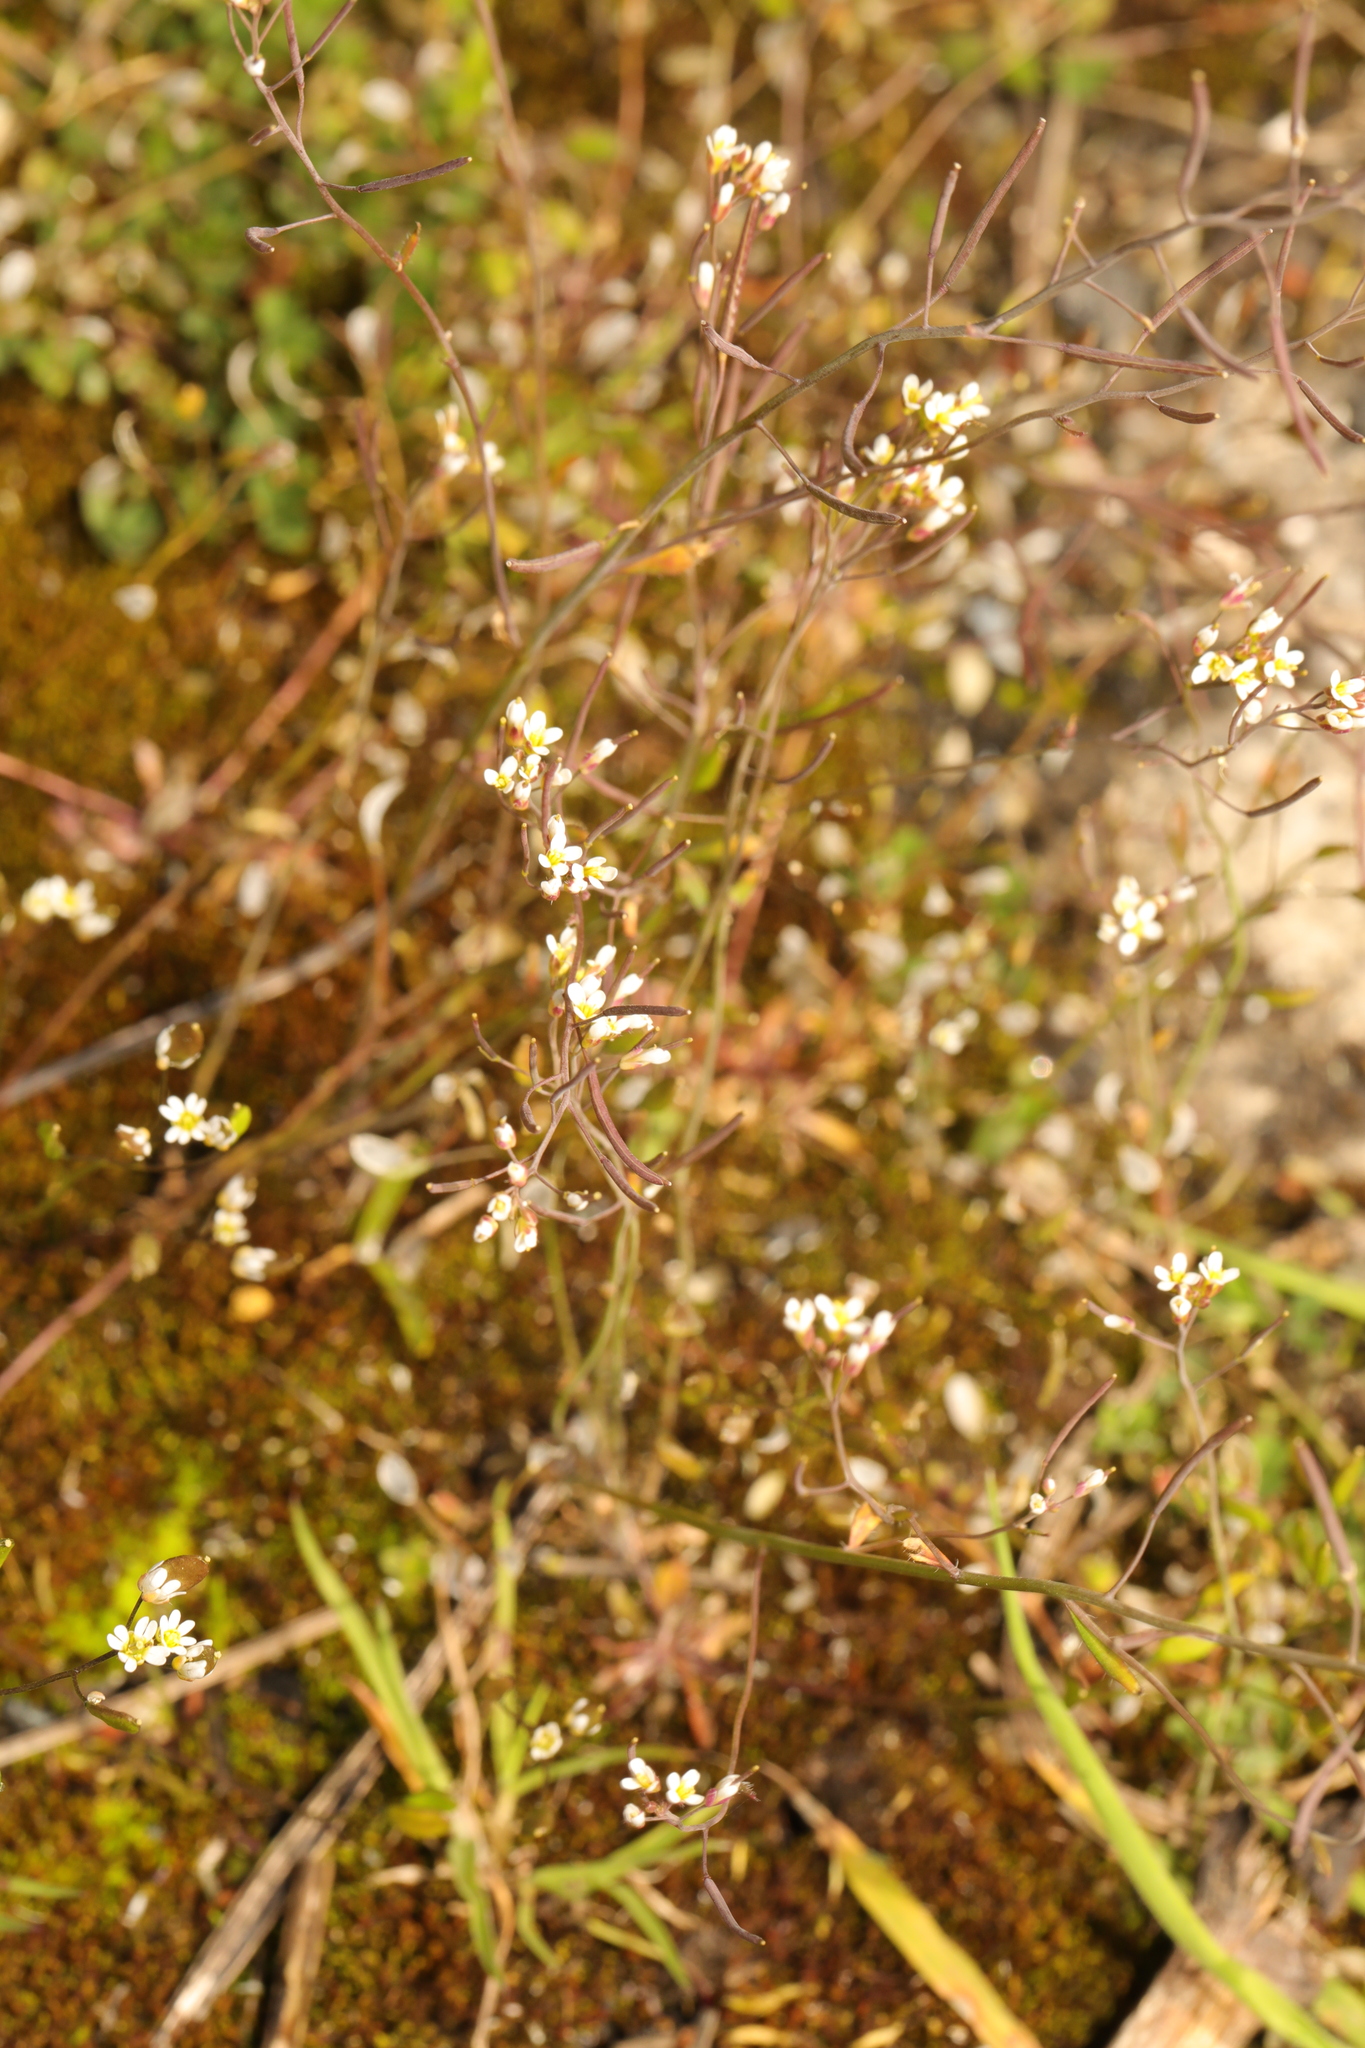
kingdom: Plantae
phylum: Tracheophyta
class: Magnoliopsida
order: Brassicales
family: Brassicaceae
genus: Arabidopsis
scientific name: Arabidopsis thaliana
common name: Thale cress
